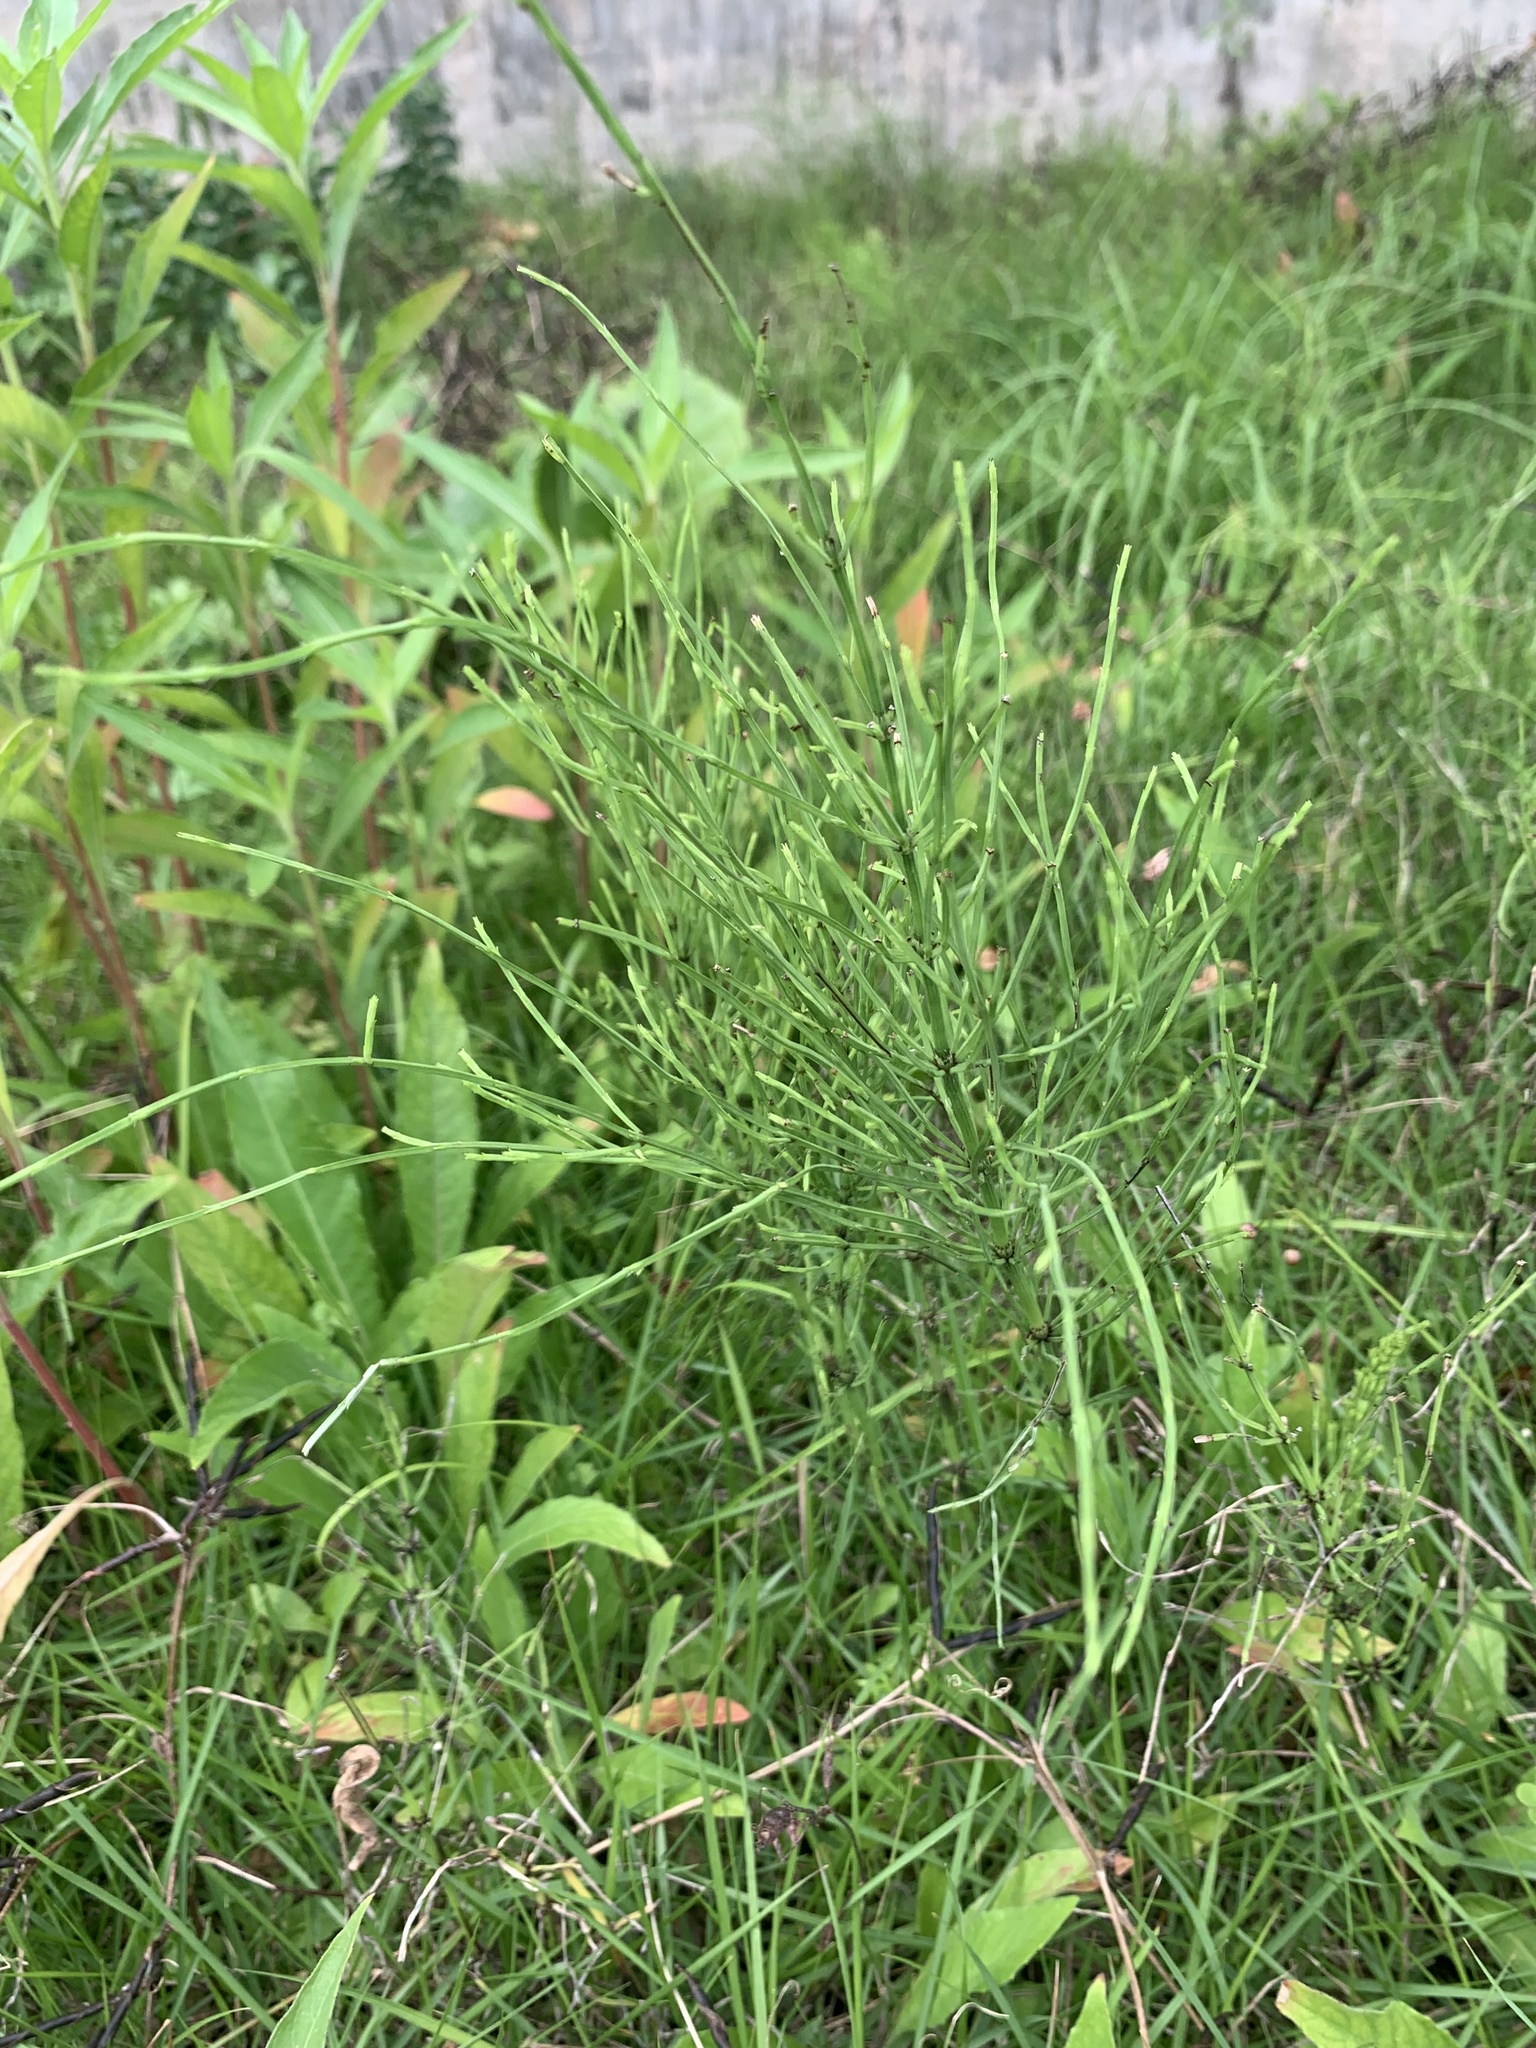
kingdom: Plantae
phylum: Tracheophyta
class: Polypodiopsida
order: Equisetales
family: Equisetaceae
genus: Equisetum
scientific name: Equisetum arvense
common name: Field horsetail
